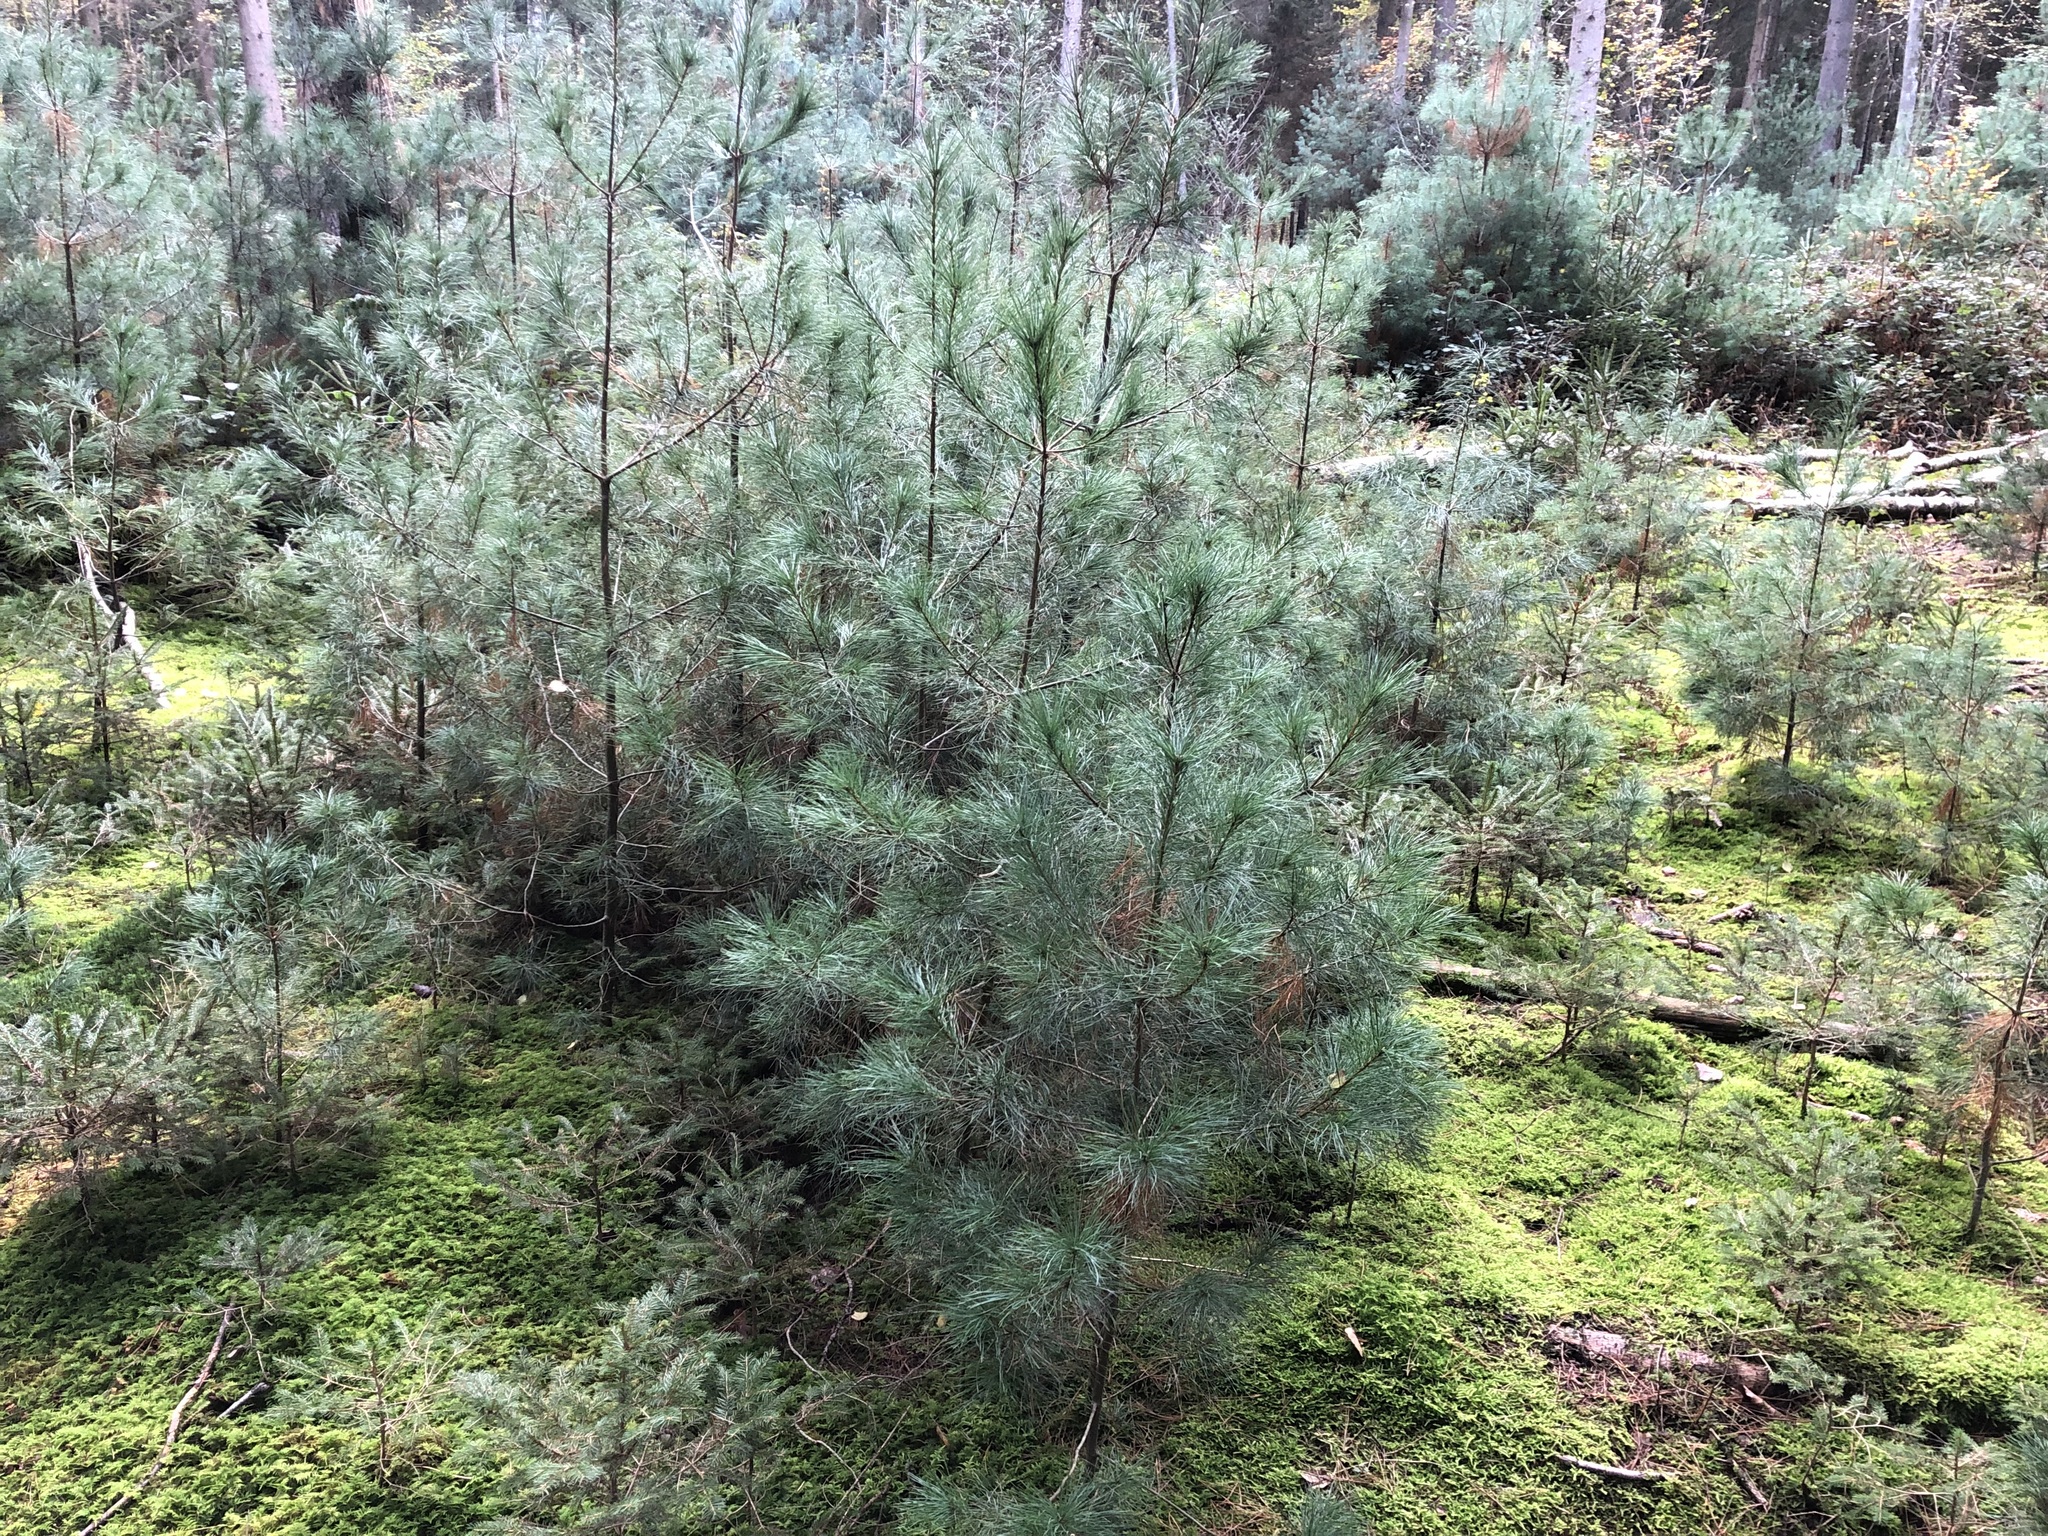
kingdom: Plantae
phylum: Tracheophyta
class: Pinopsida
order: Pinales
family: Pinaceae
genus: Pinus
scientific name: Pinus strobus
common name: Weymouth pine
